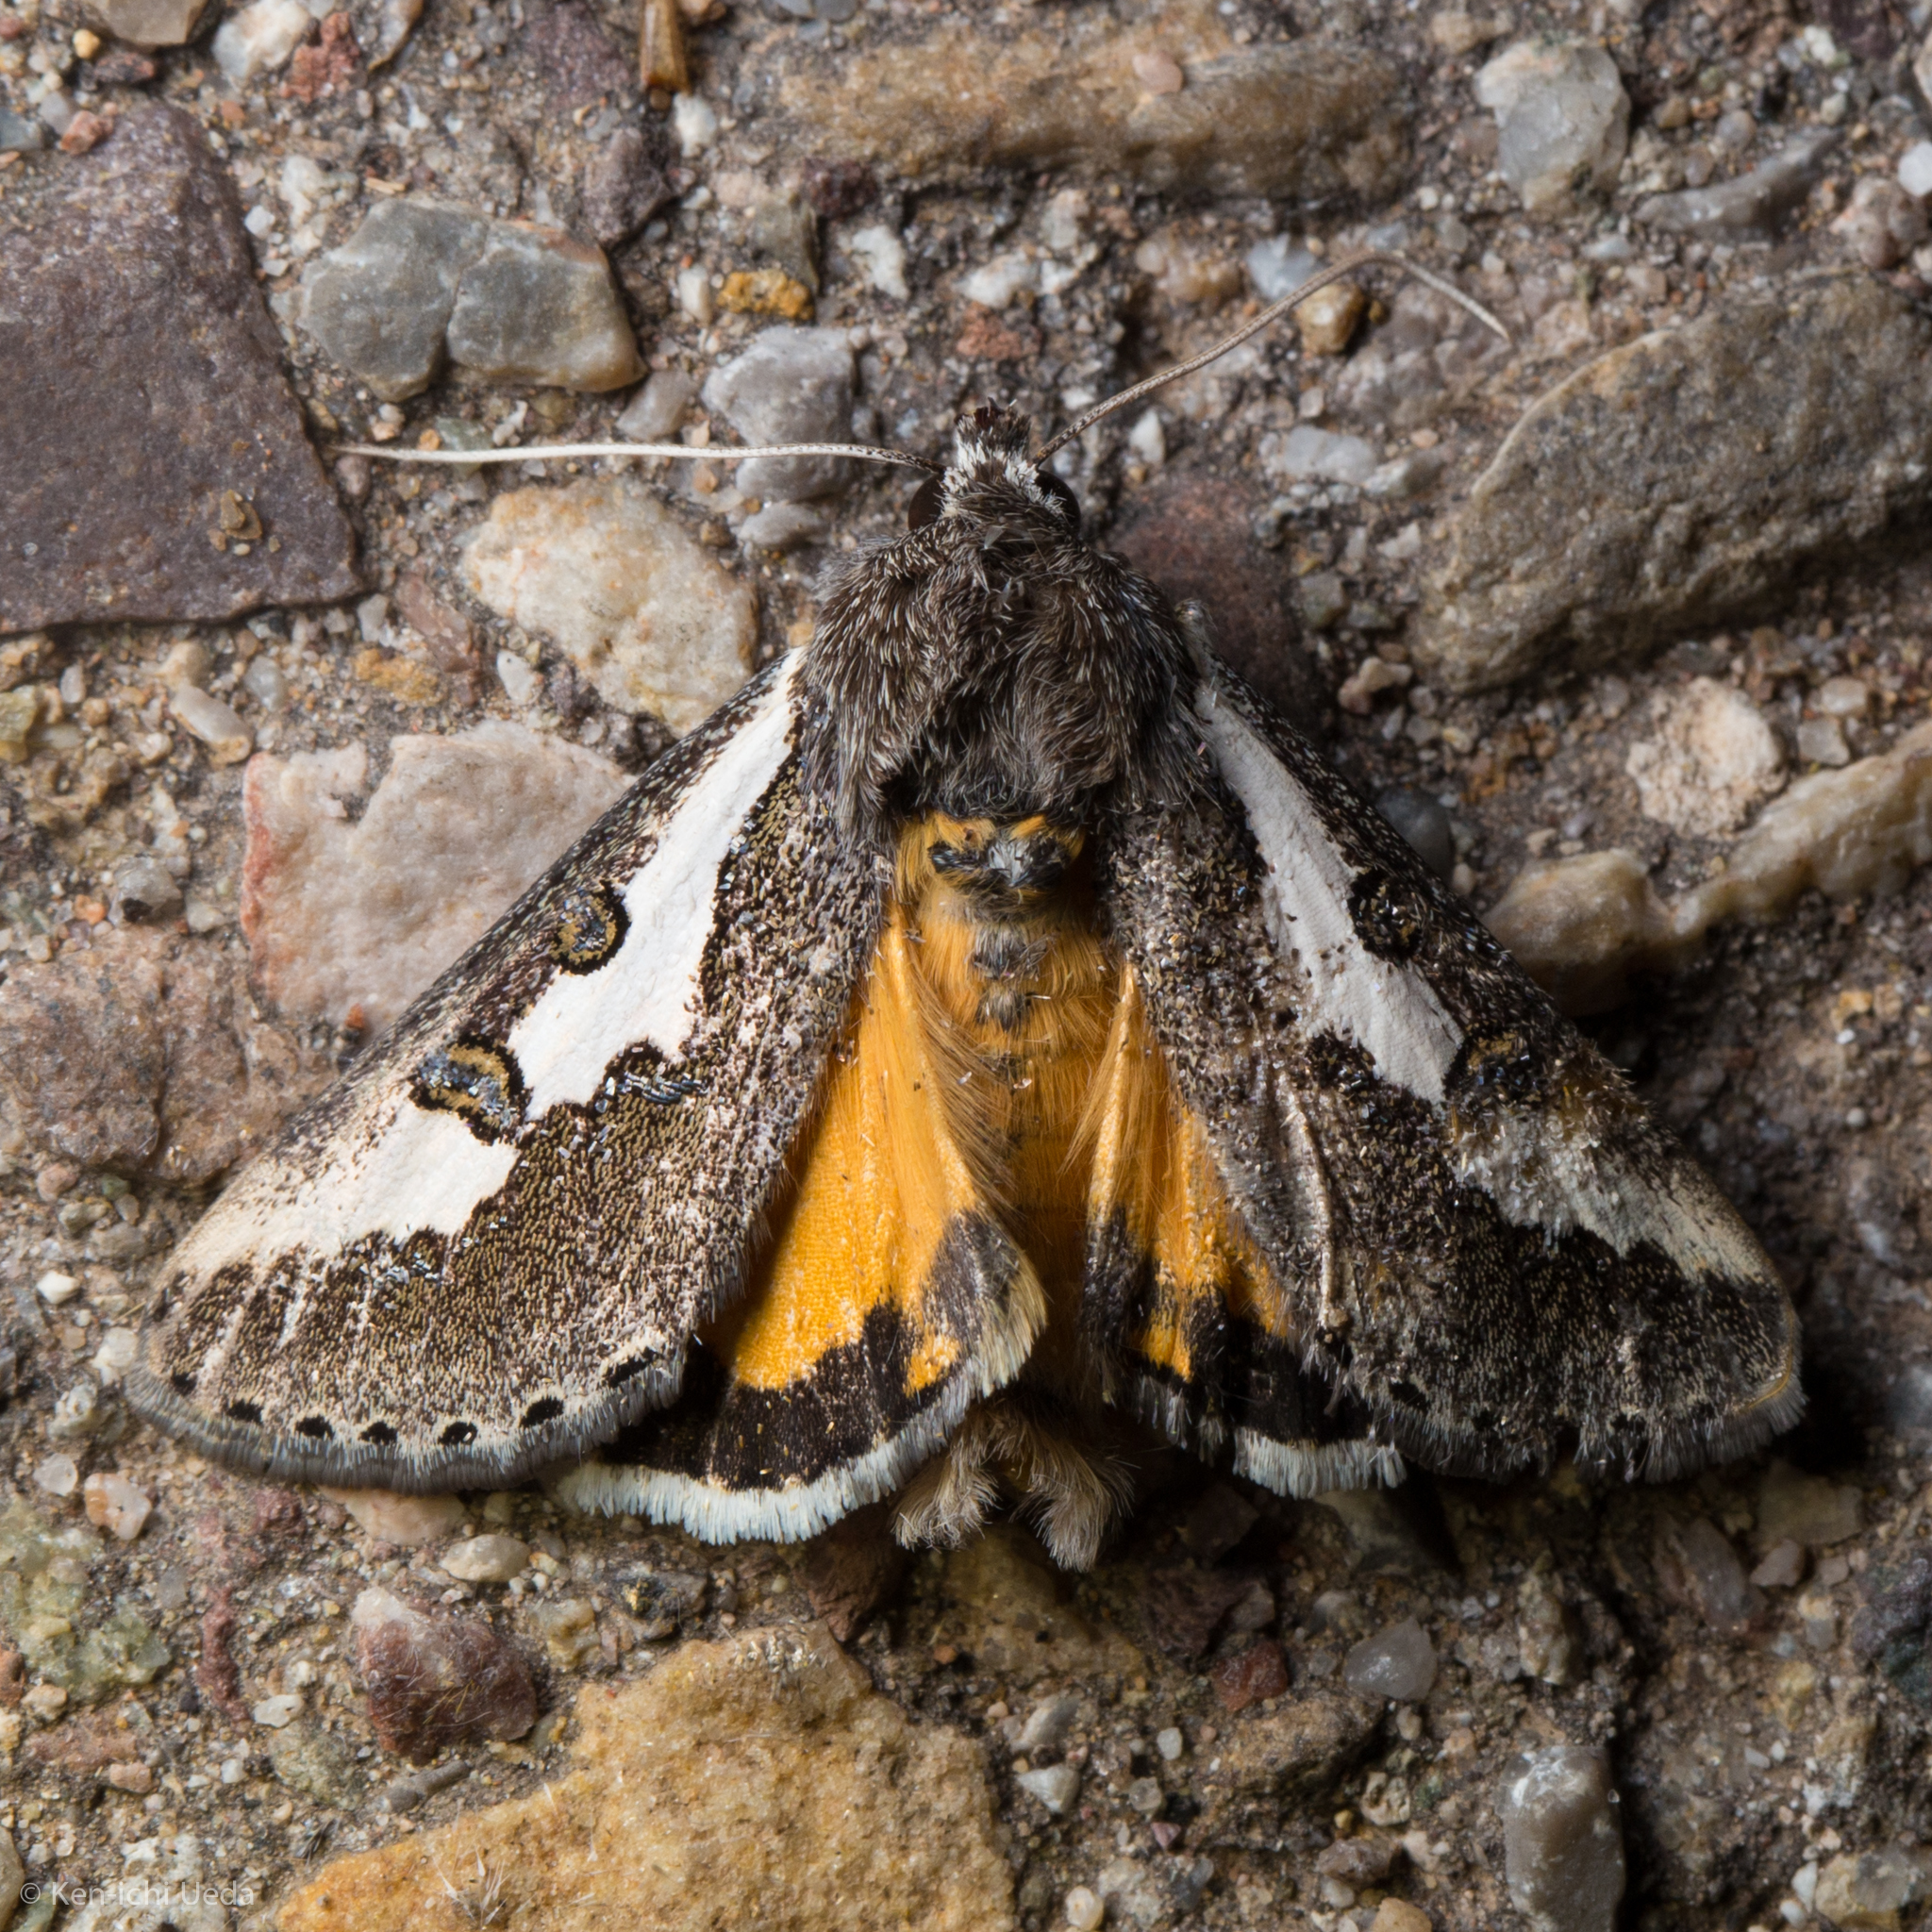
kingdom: Animalia
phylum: Arthropoda
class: Insecta
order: Lepidoptera
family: Noctuidae
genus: Euscirrhopterus
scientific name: Euscirrhopterus gloveri
